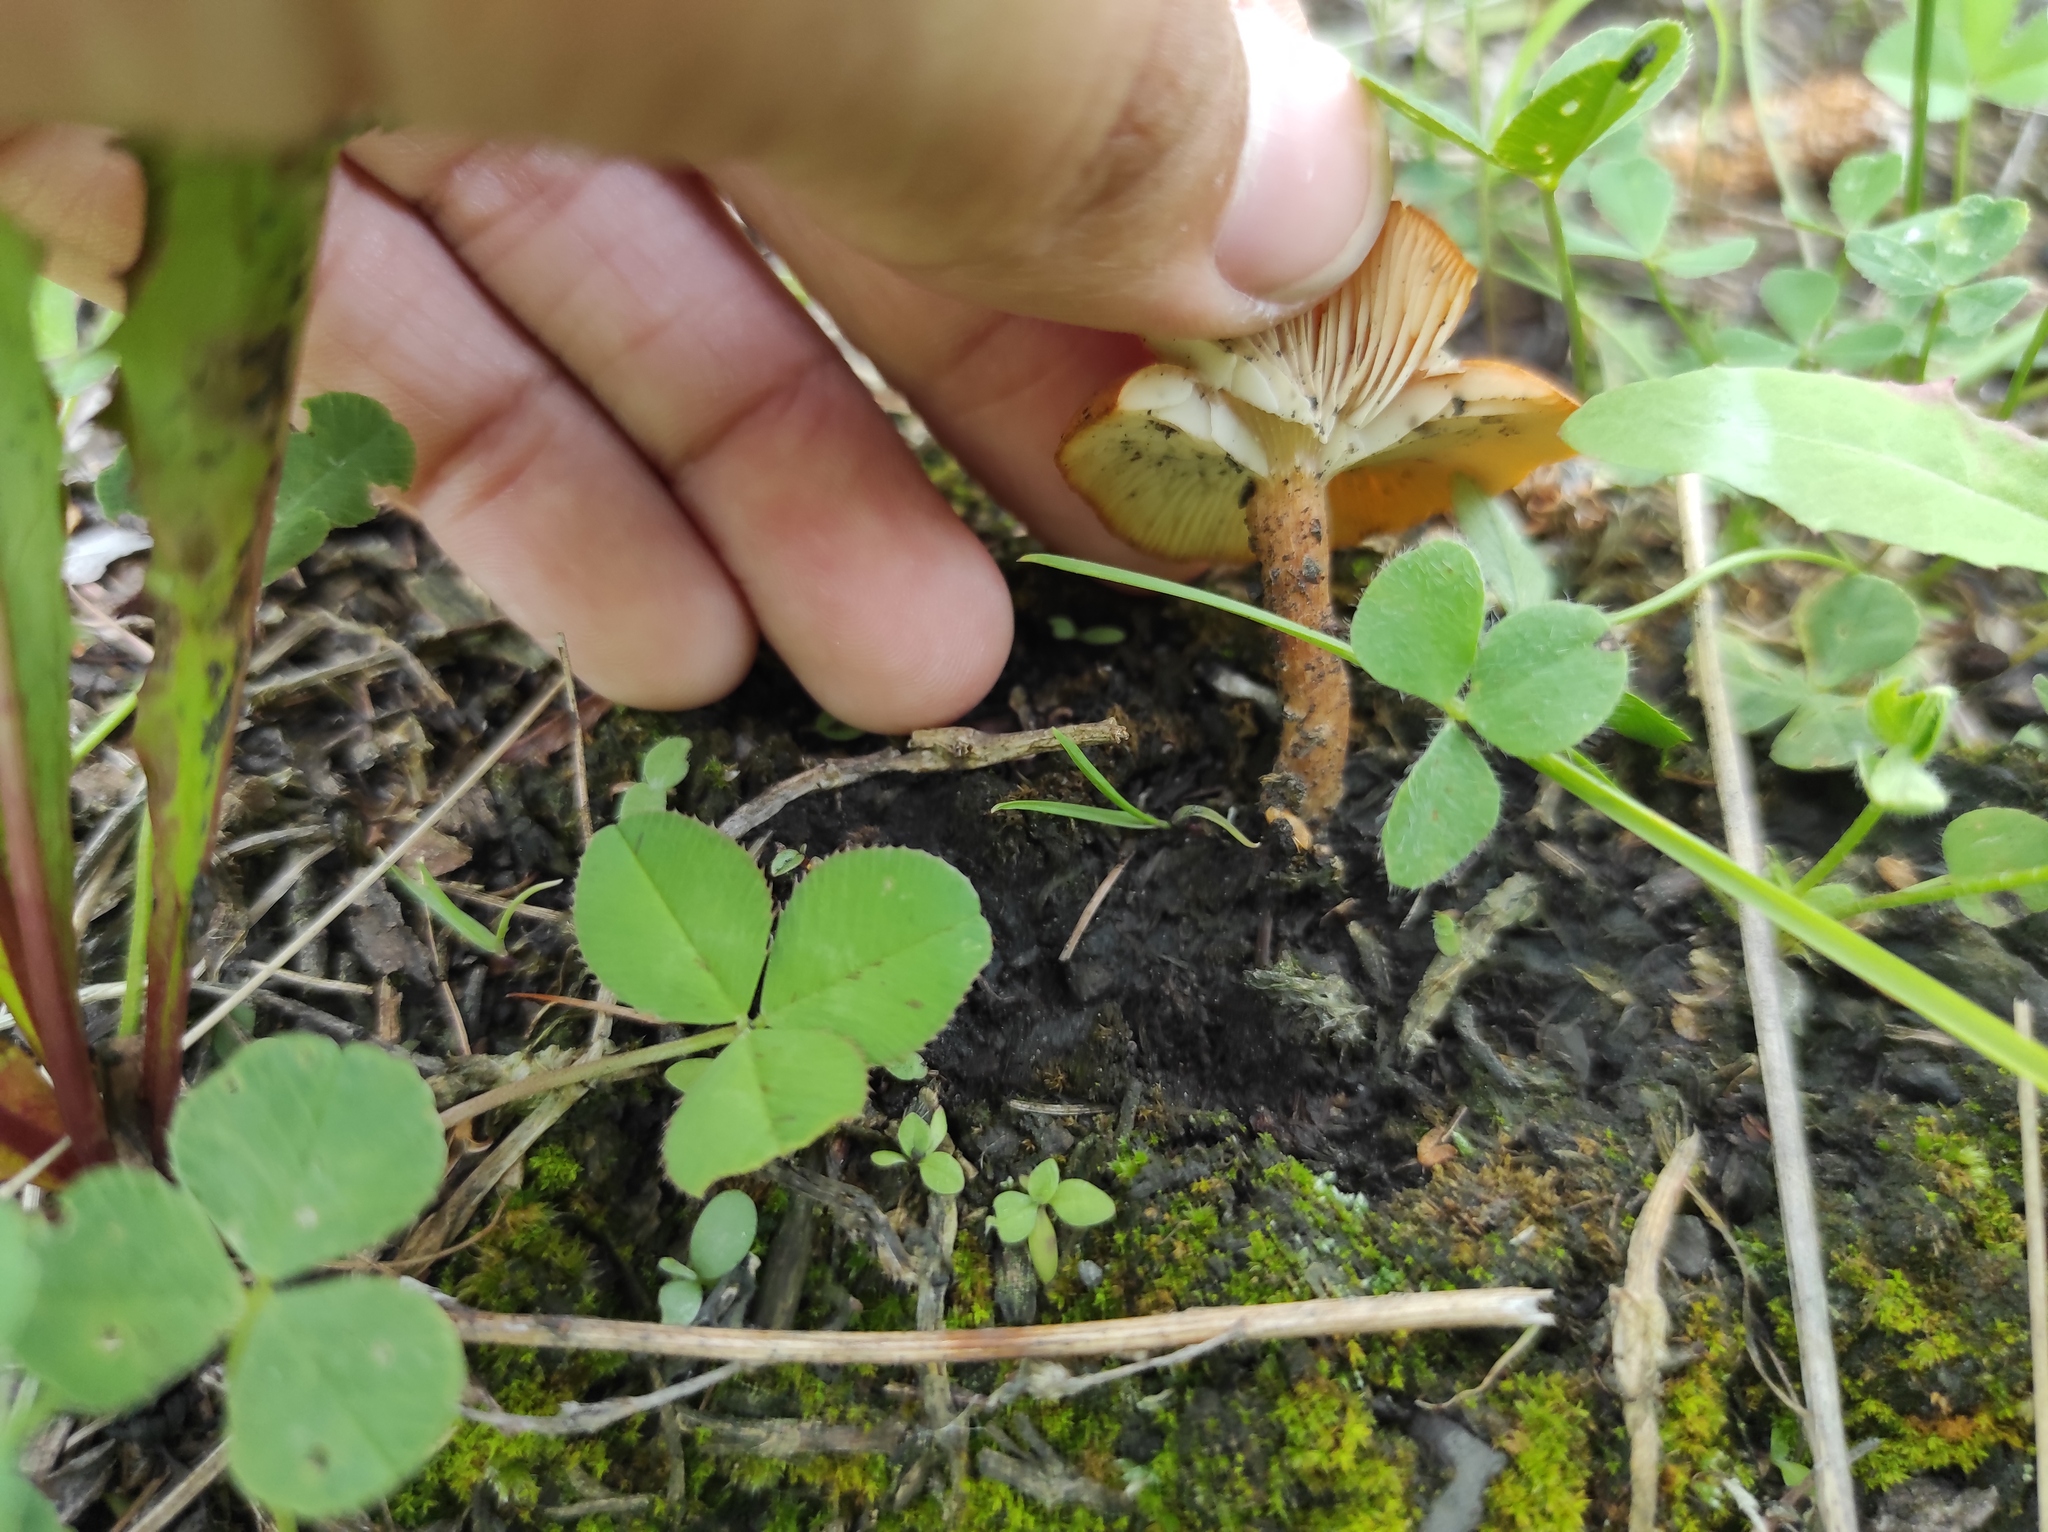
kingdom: Plantae
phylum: Tracheophyta
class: Magnoliopsida
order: Fabales
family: Fabaceae
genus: Trifolium
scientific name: Trifolium repens
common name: White clover
